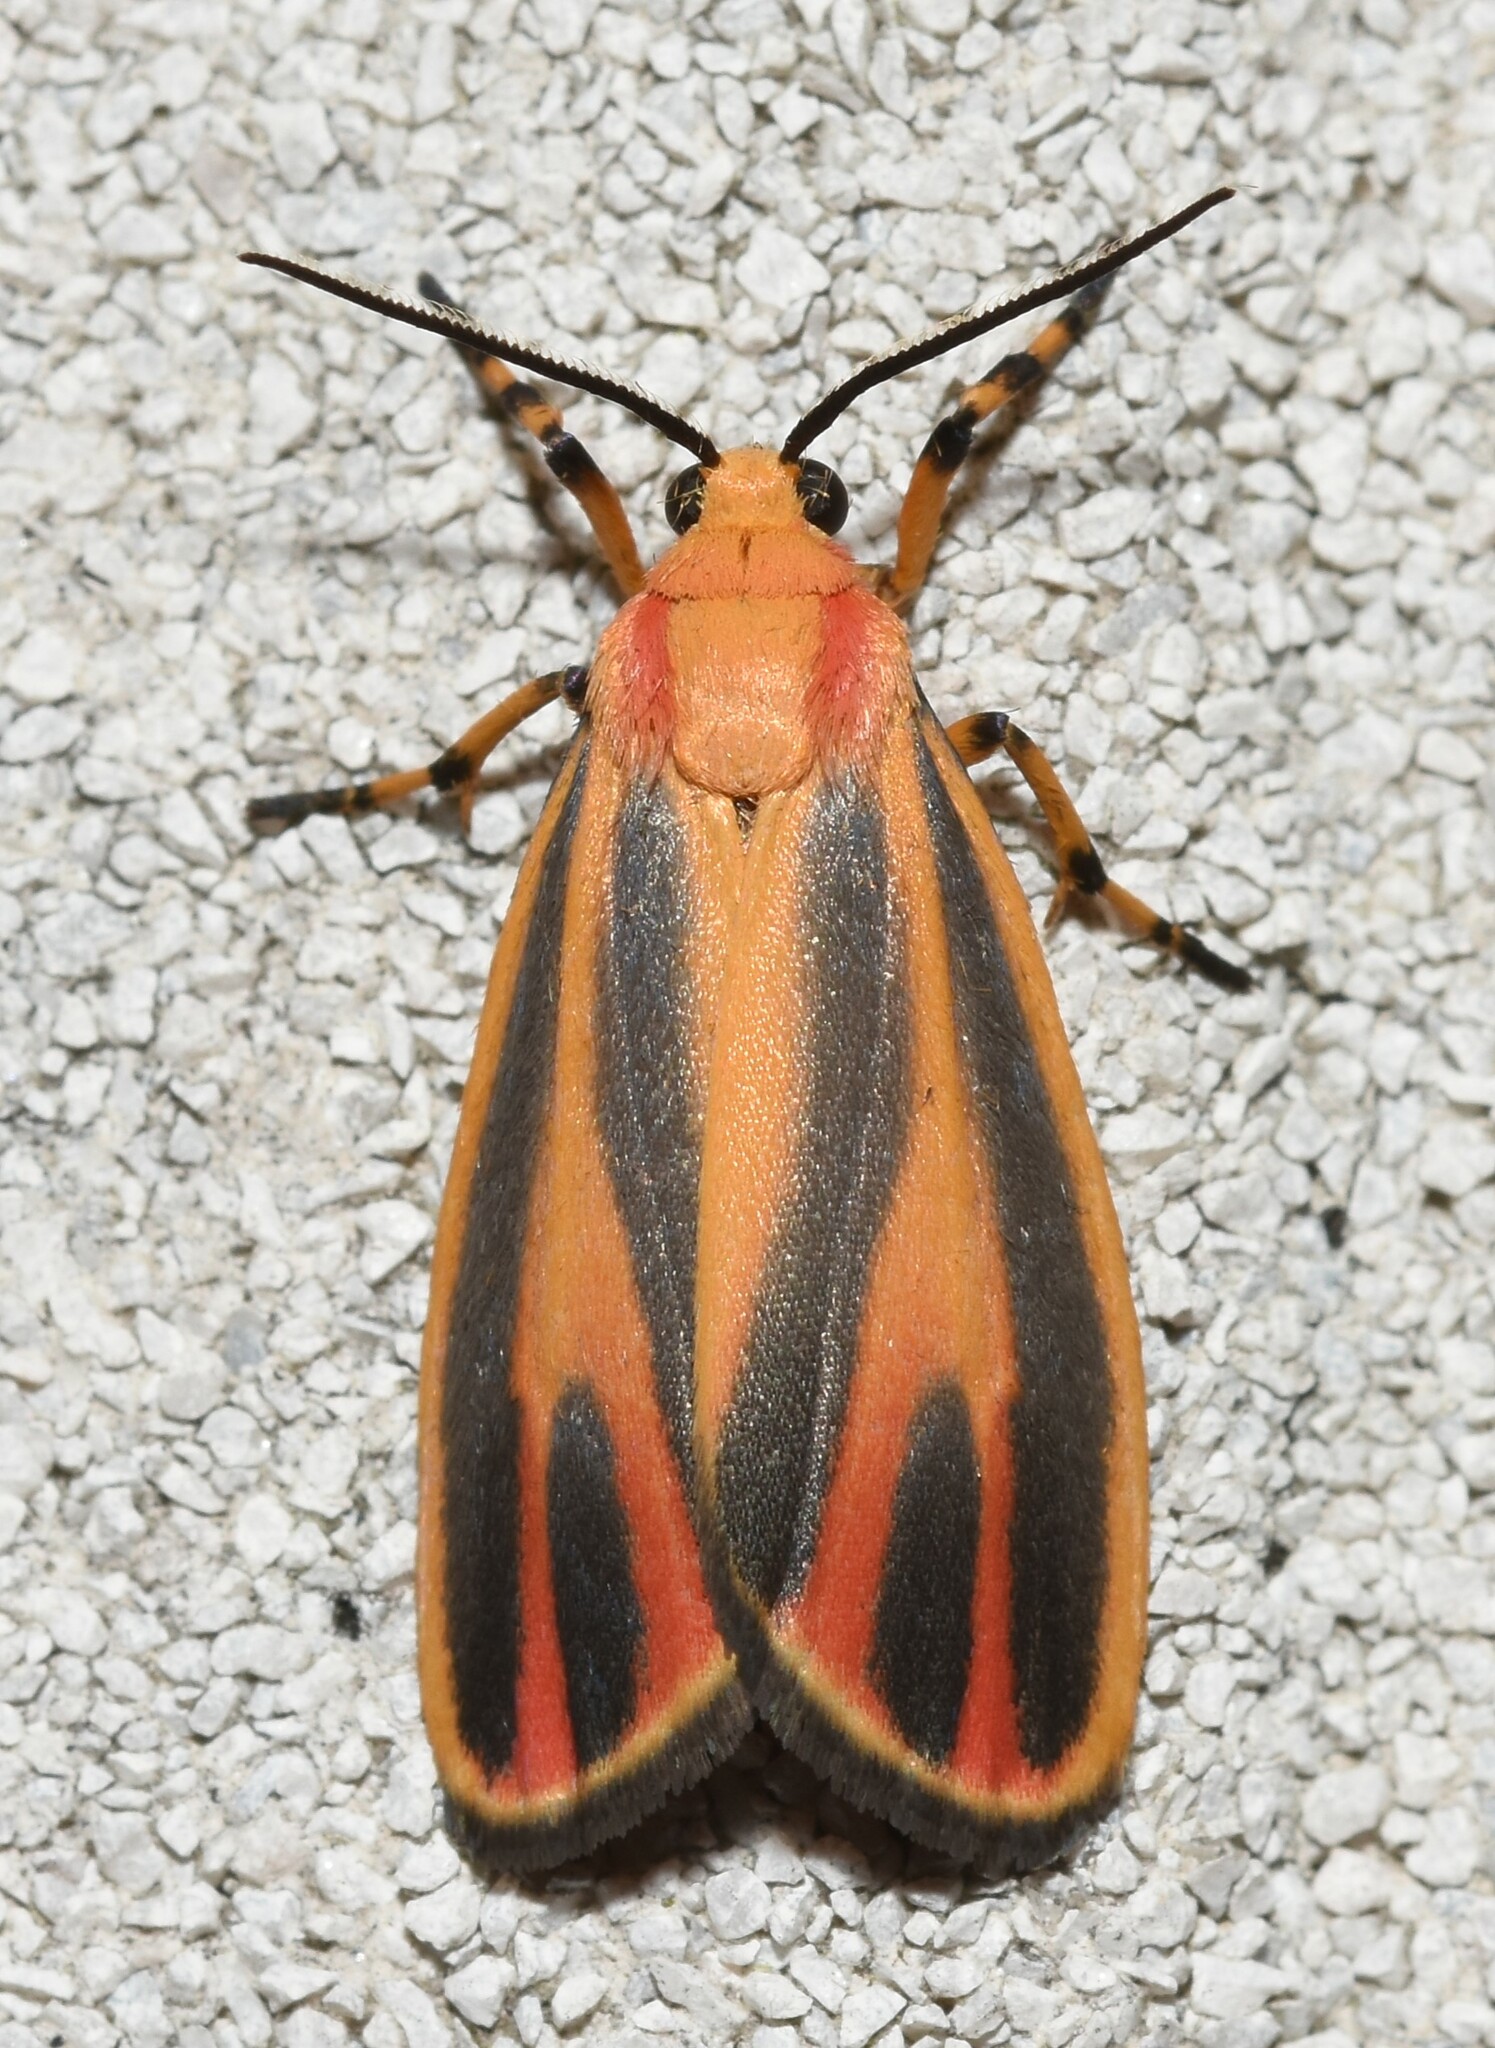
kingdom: Animalia
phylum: Arthropoda
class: Insecta
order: Lepidoptera
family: Erebidae
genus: Hypoprepia
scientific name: Hypoprepia fucosa
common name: Painted lichen moth
